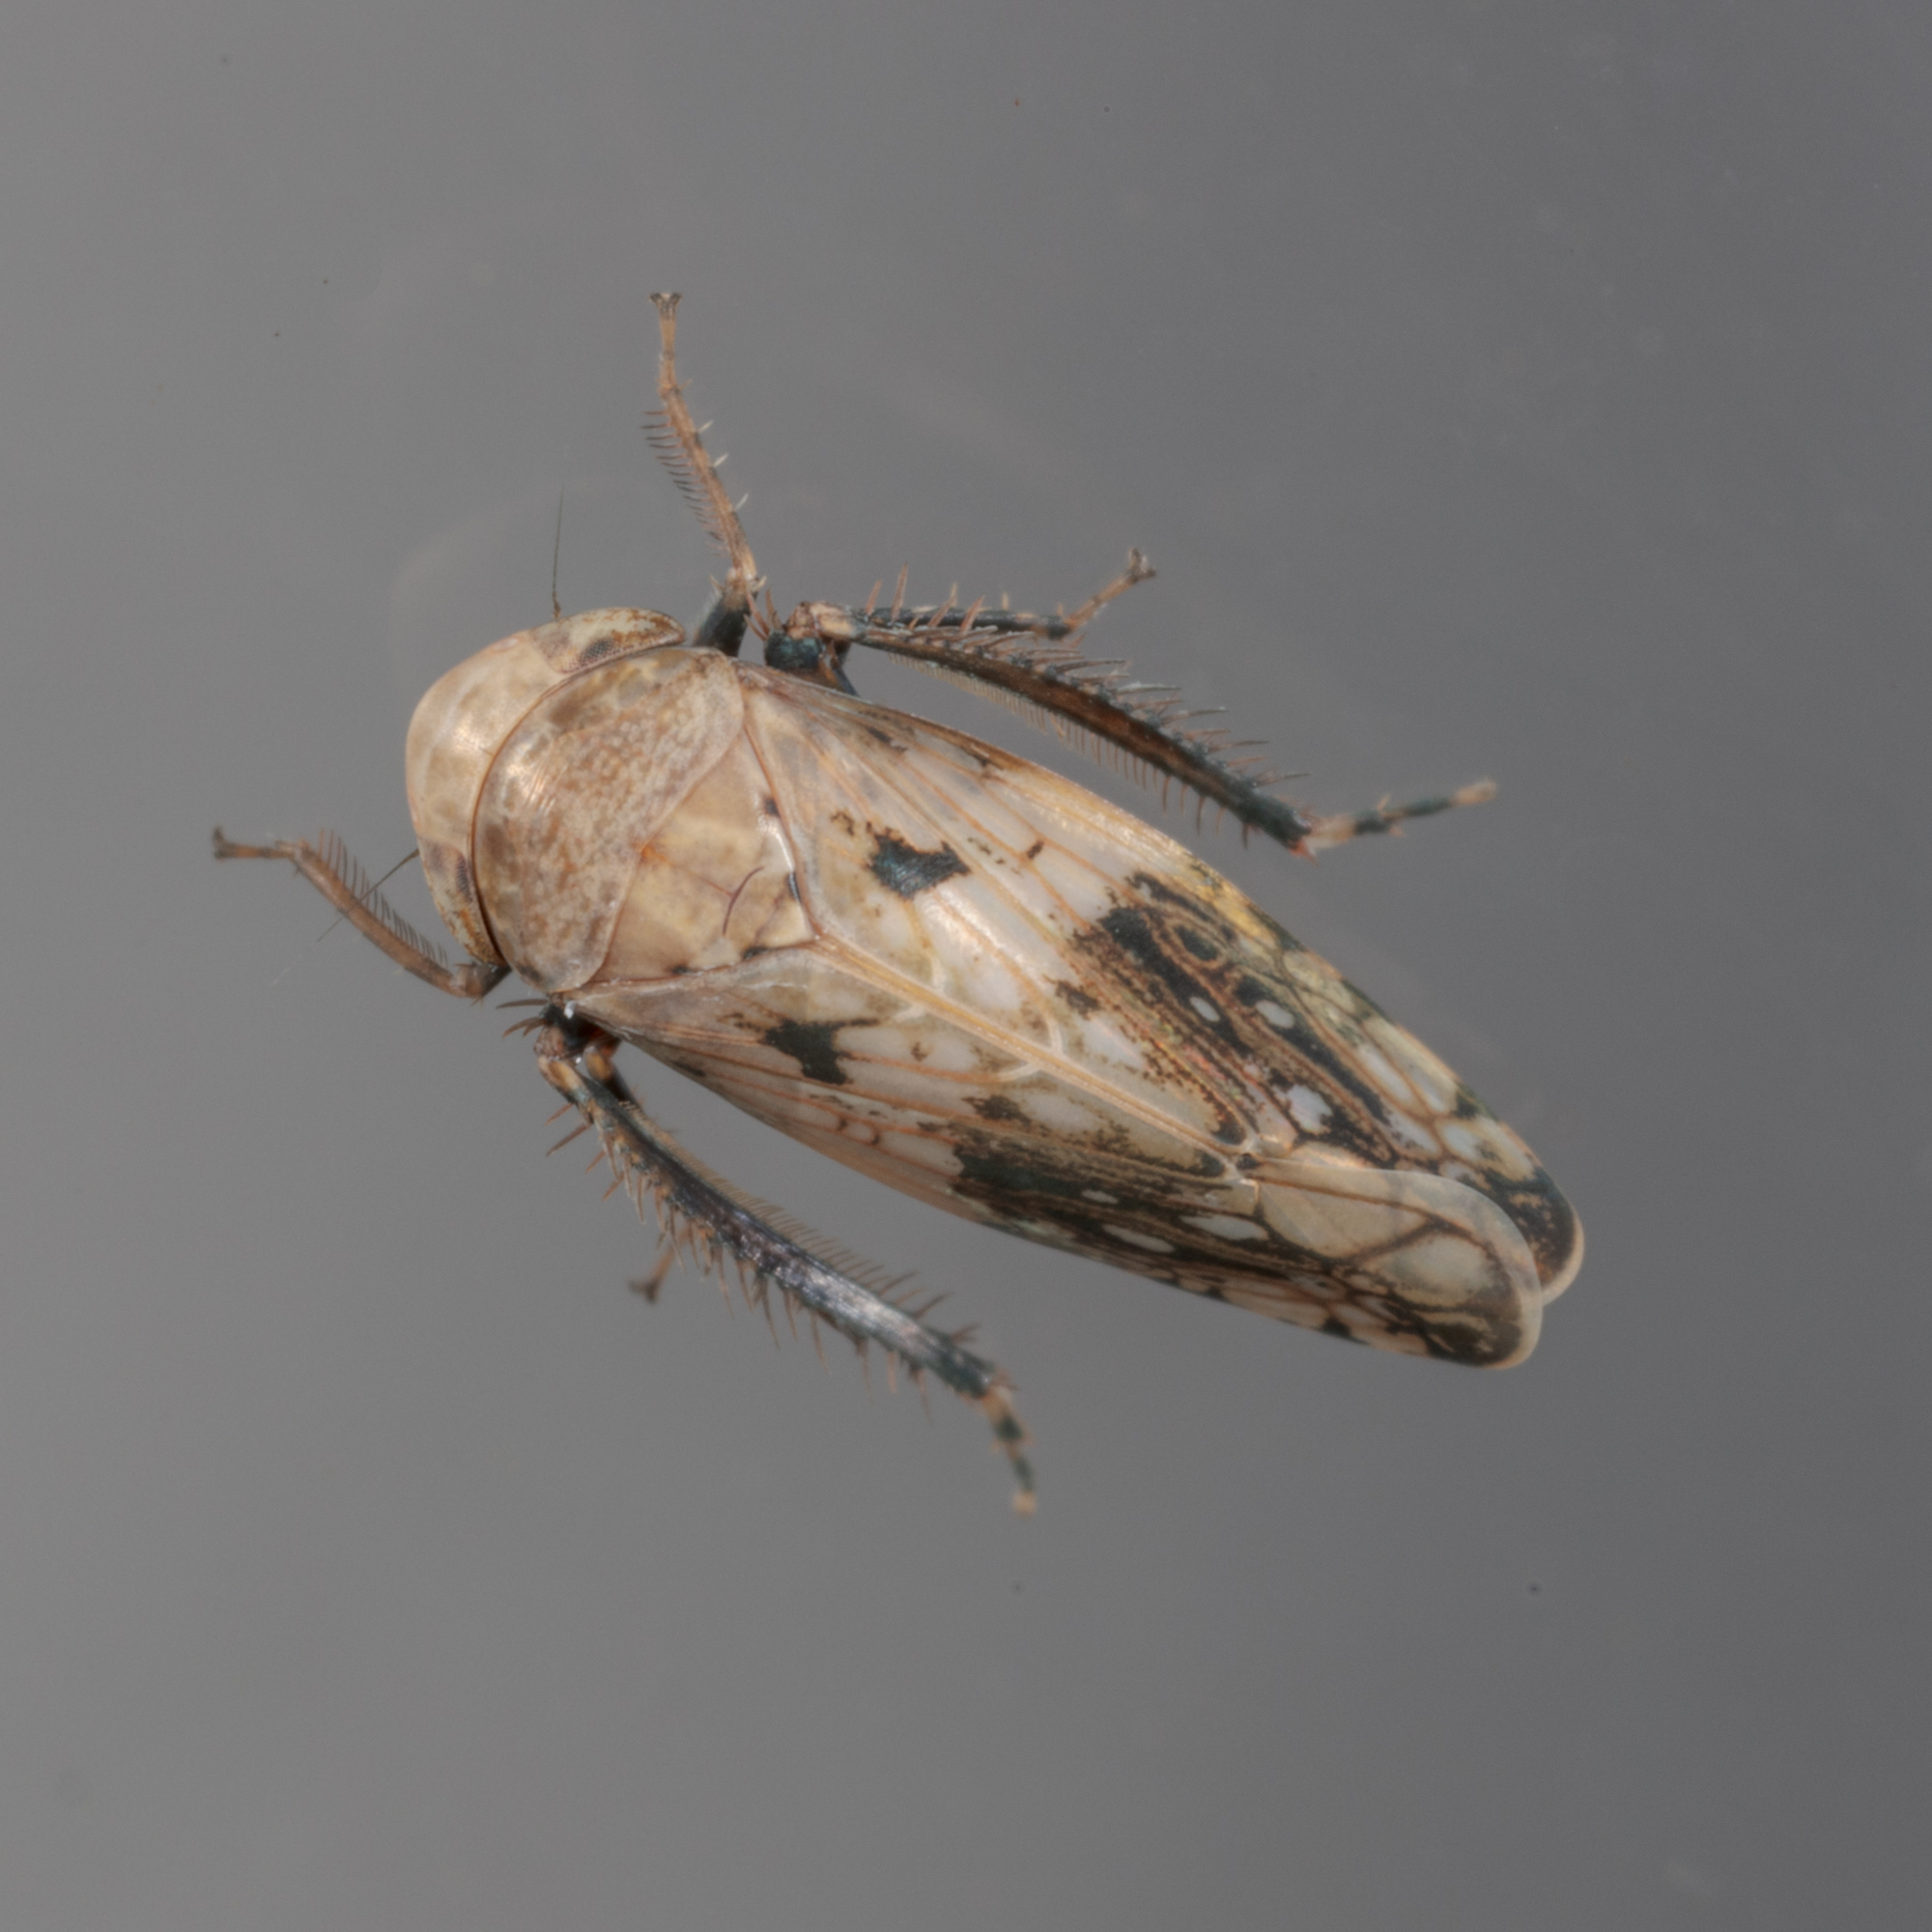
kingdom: Animalia
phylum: Arthropoda
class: Insecta
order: Hemiptera
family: Cicadellidae
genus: Menosoma
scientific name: Menosoma cinctum
